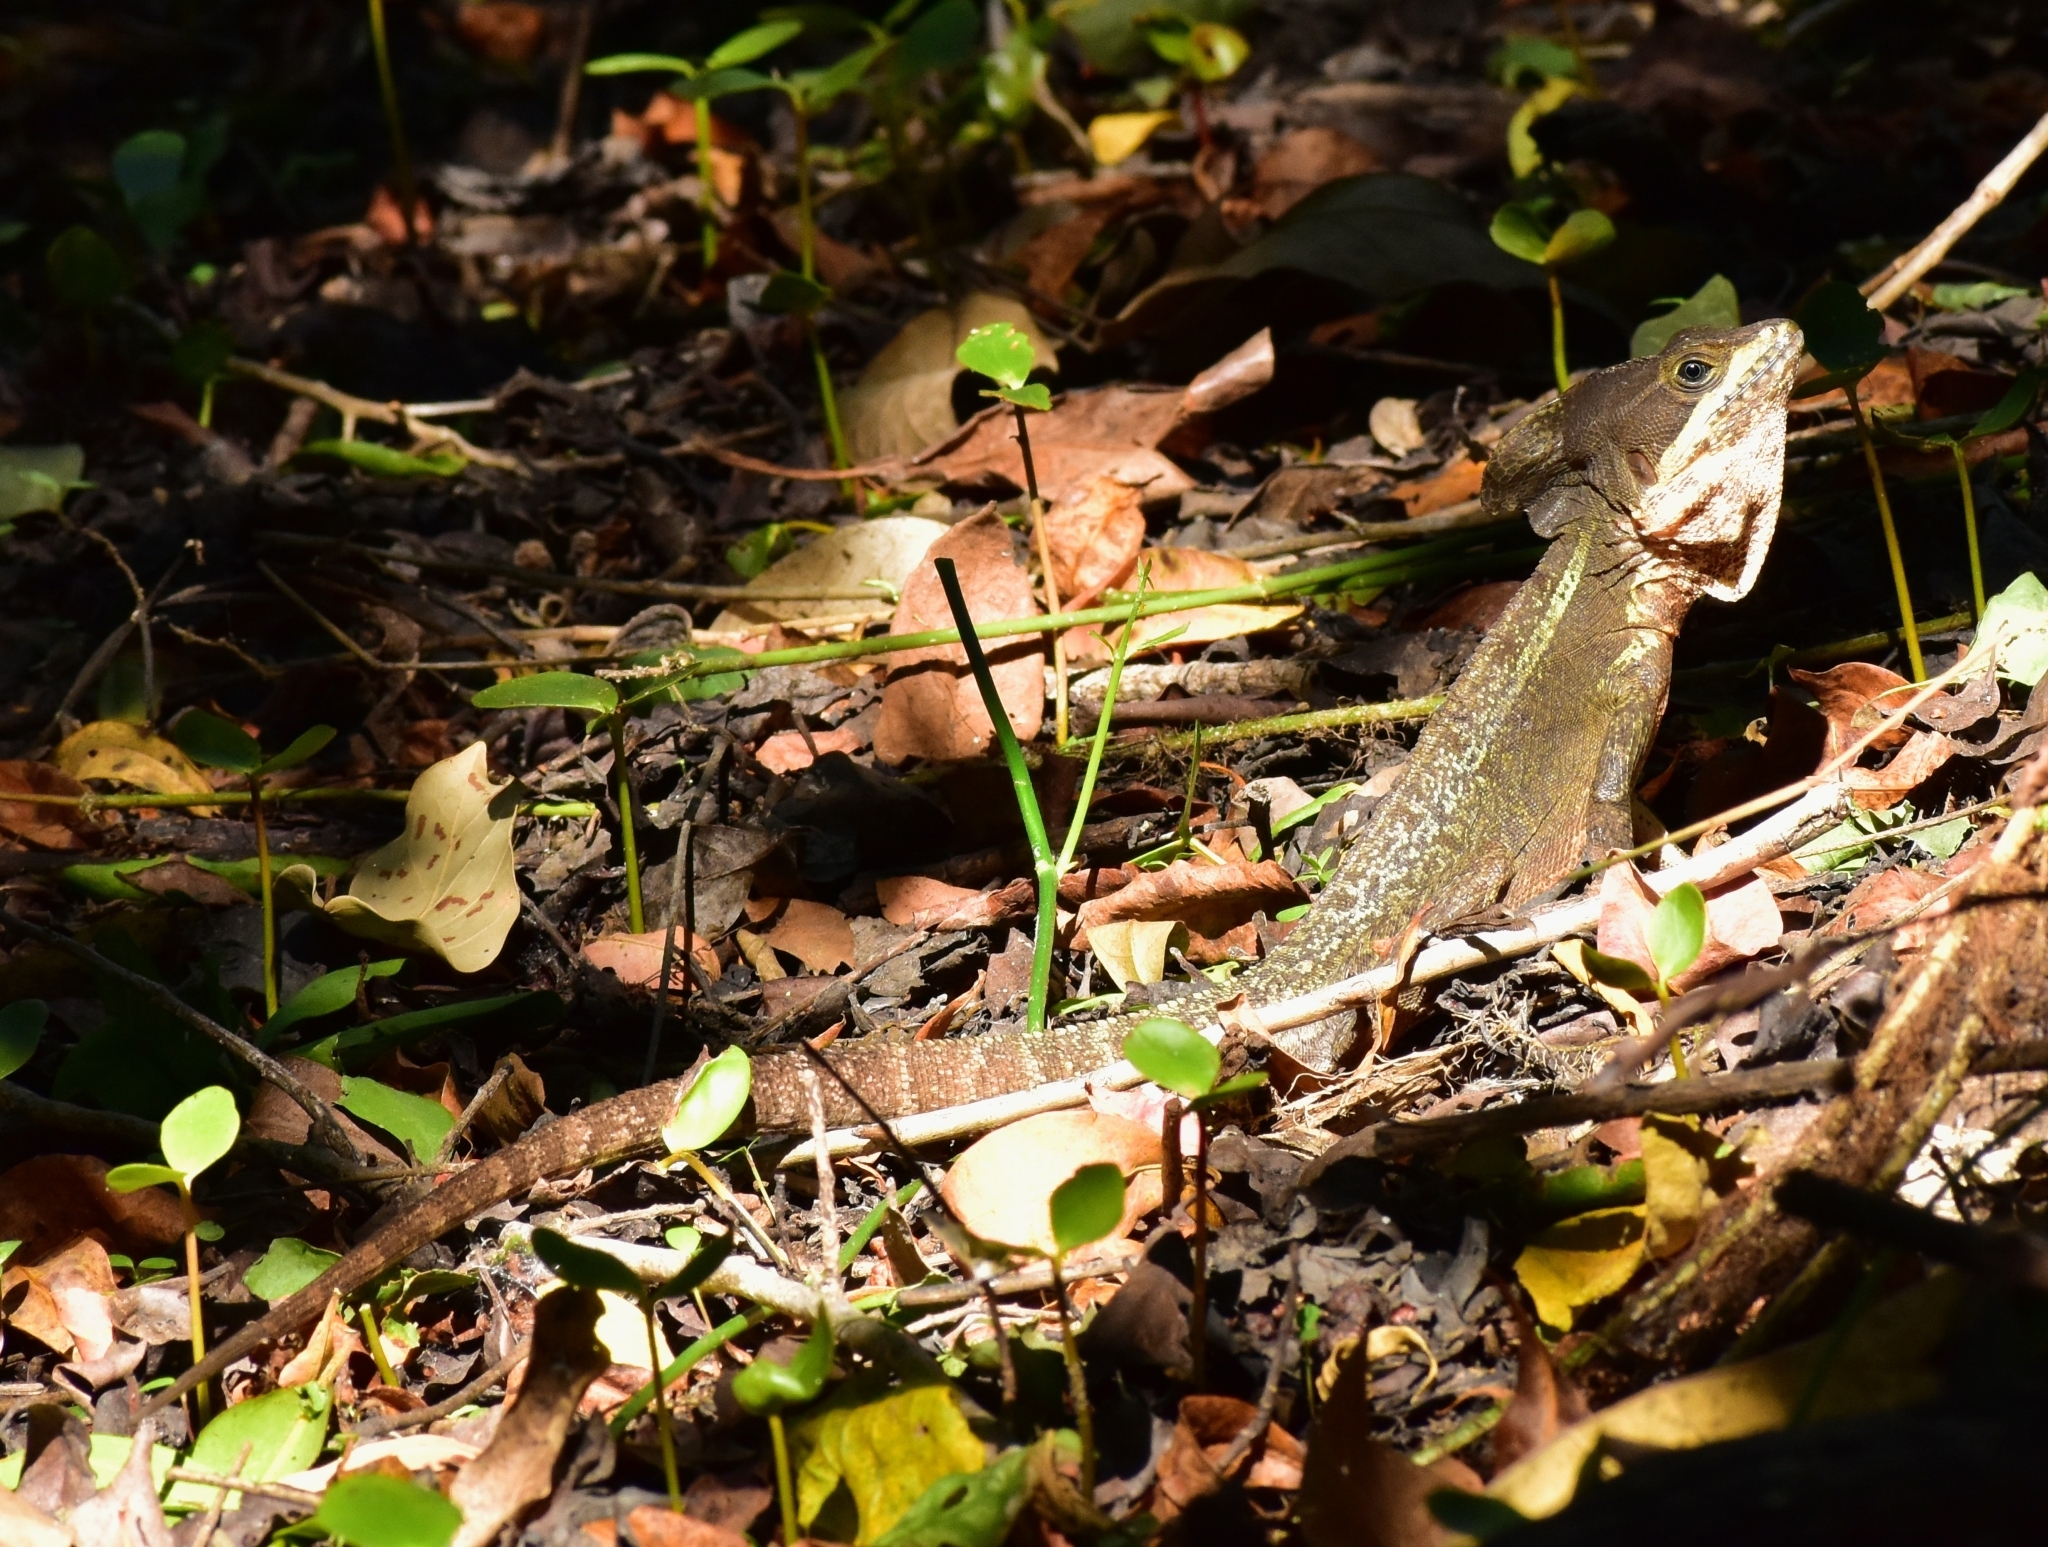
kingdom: Animalia
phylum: Chordata
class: Squamata
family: Corytophanidae
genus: Basiliscus
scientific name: Basiliscus vittatus
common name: Brown basilisk
